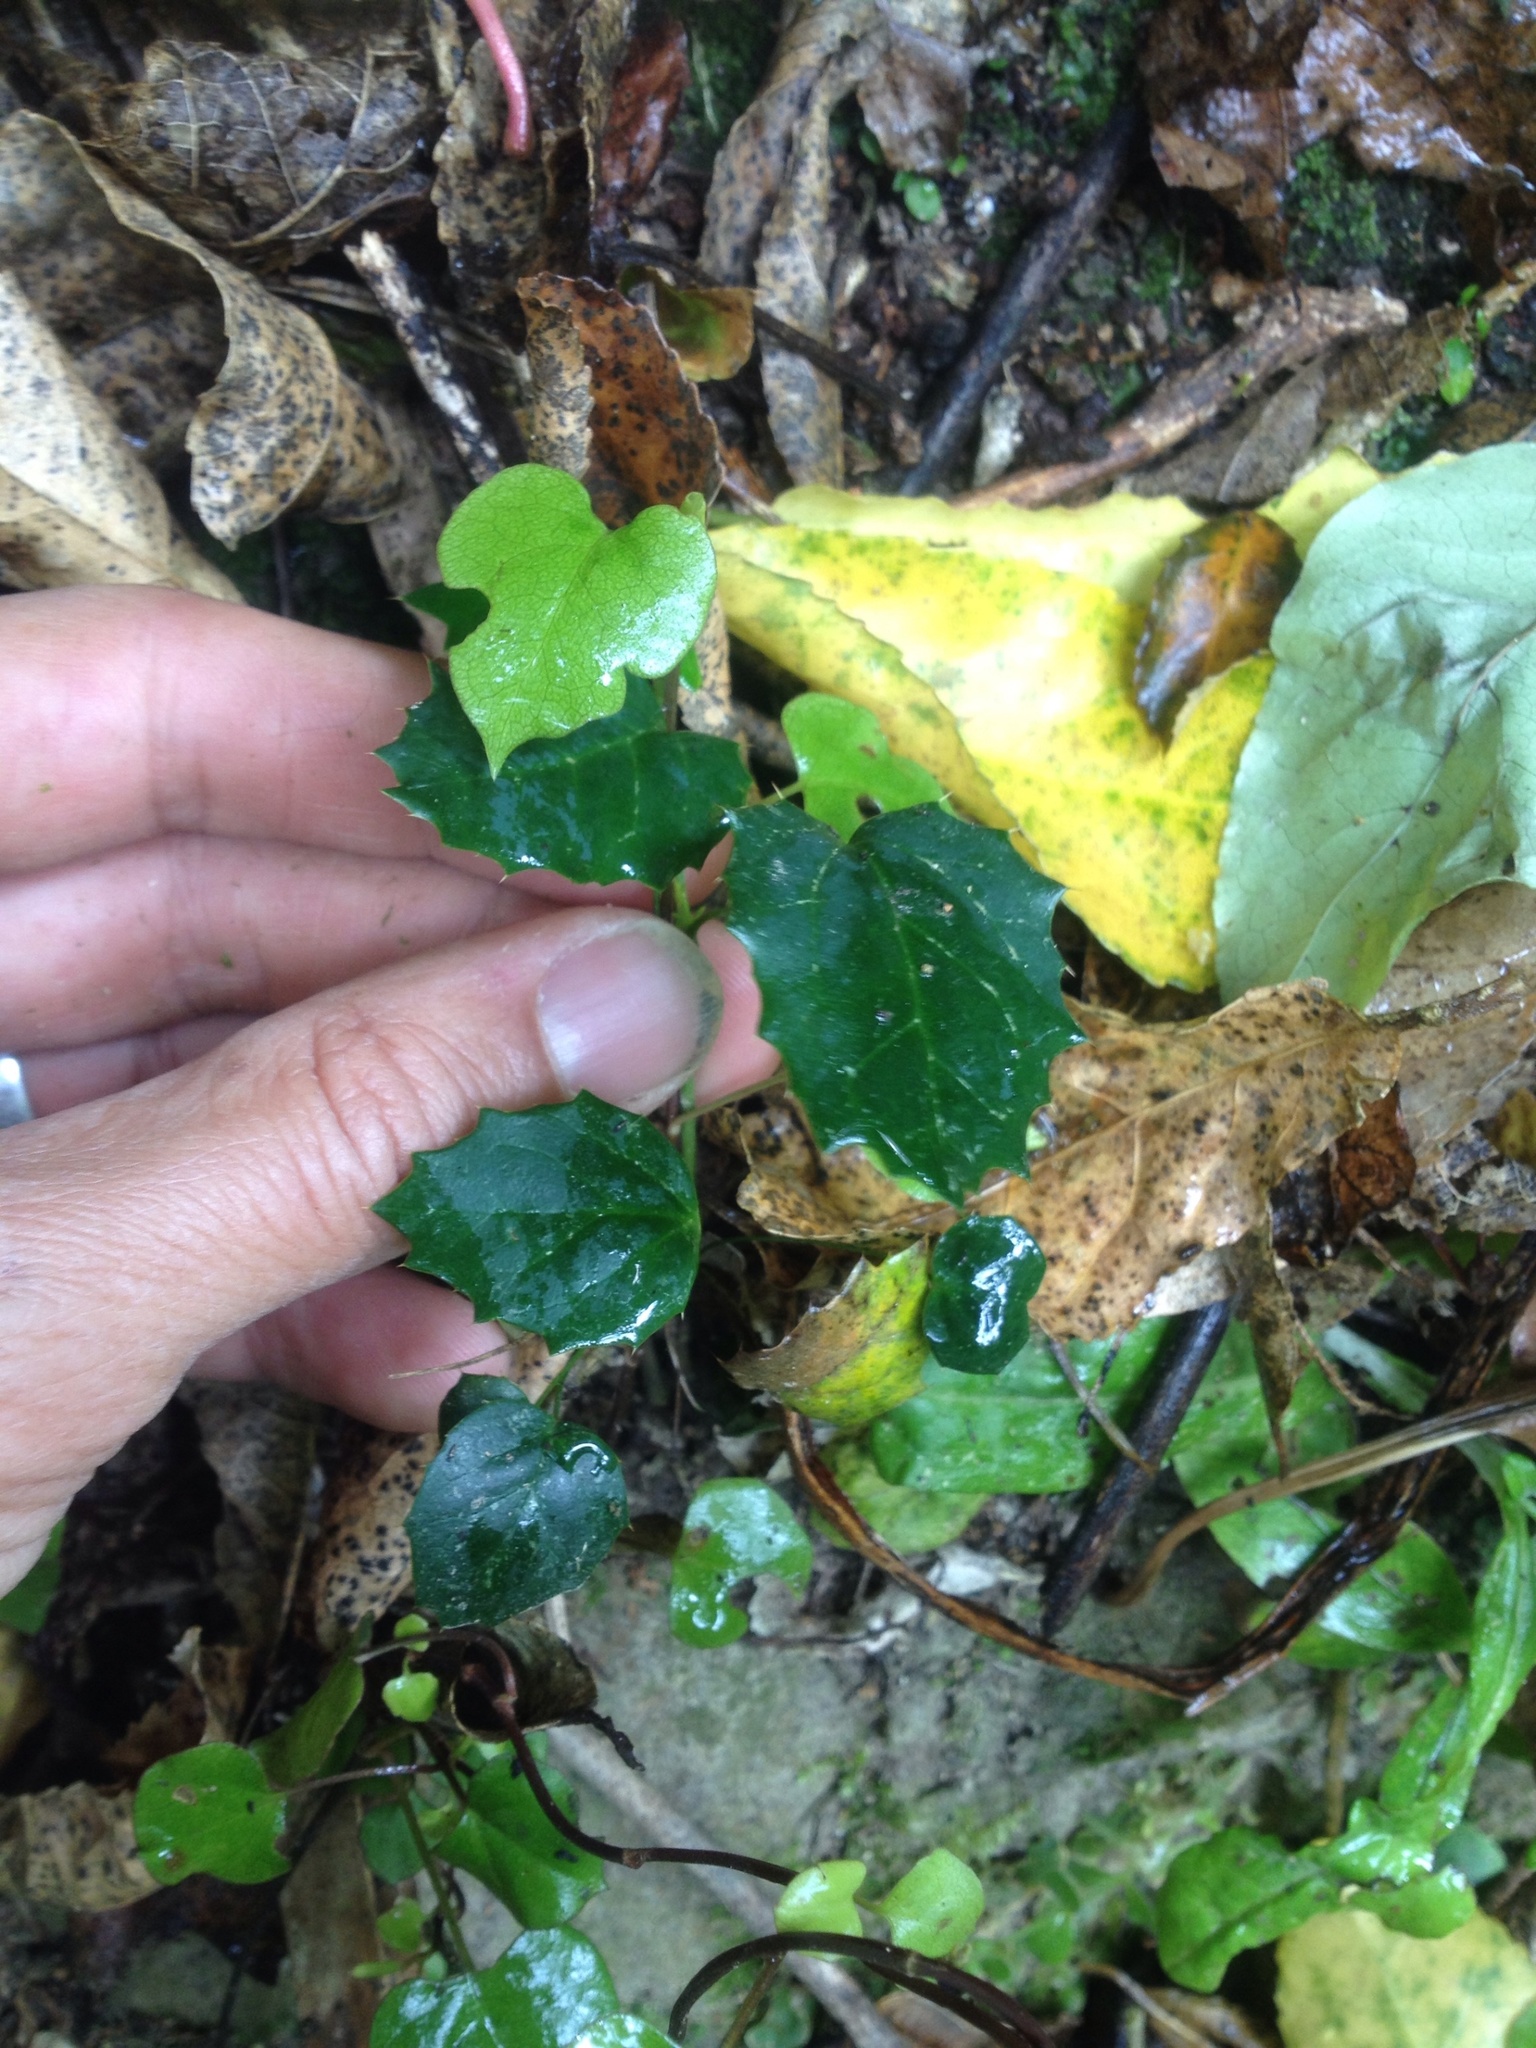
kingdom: Plantae
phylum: Tracheophyta
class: Magnoliopsida
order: Ranunculales
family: Berberidaceae
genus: Berberis
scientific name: Berberis darwinii
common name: Darwin's barberry
